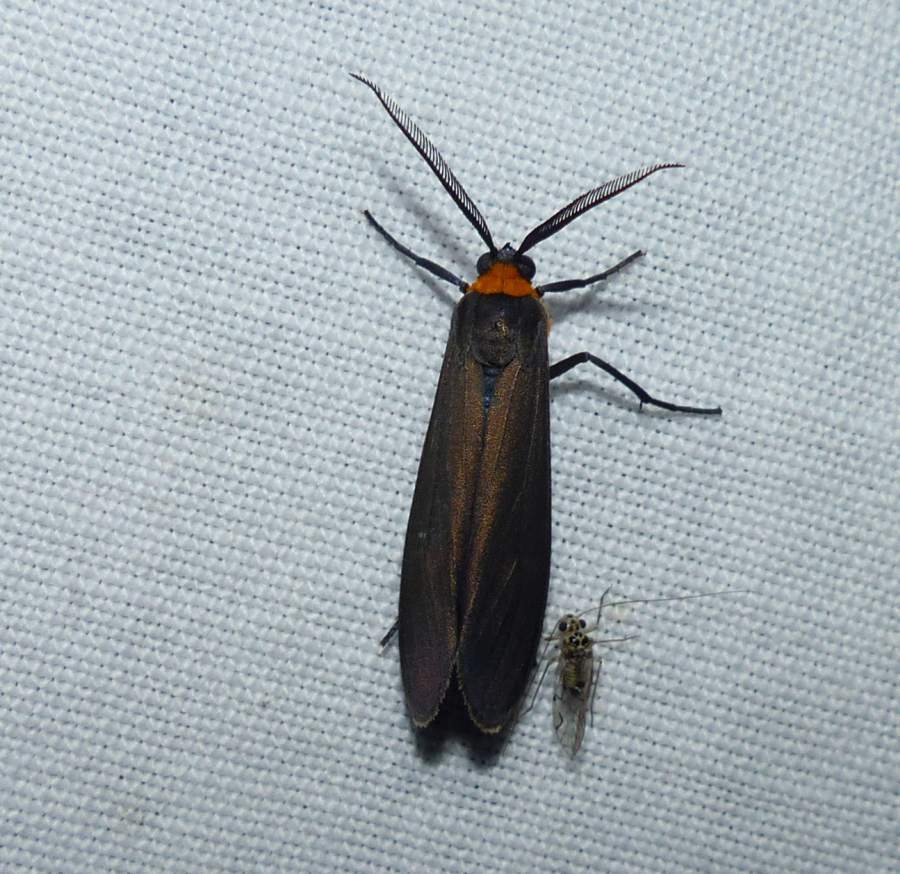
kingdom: Animalia
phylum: Arthropoda
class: Insecta
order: Lepidoptera
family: Erebidae
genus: Cisseps
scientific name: Cisseps fulvicollis
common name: Yellow-collared scape moth
